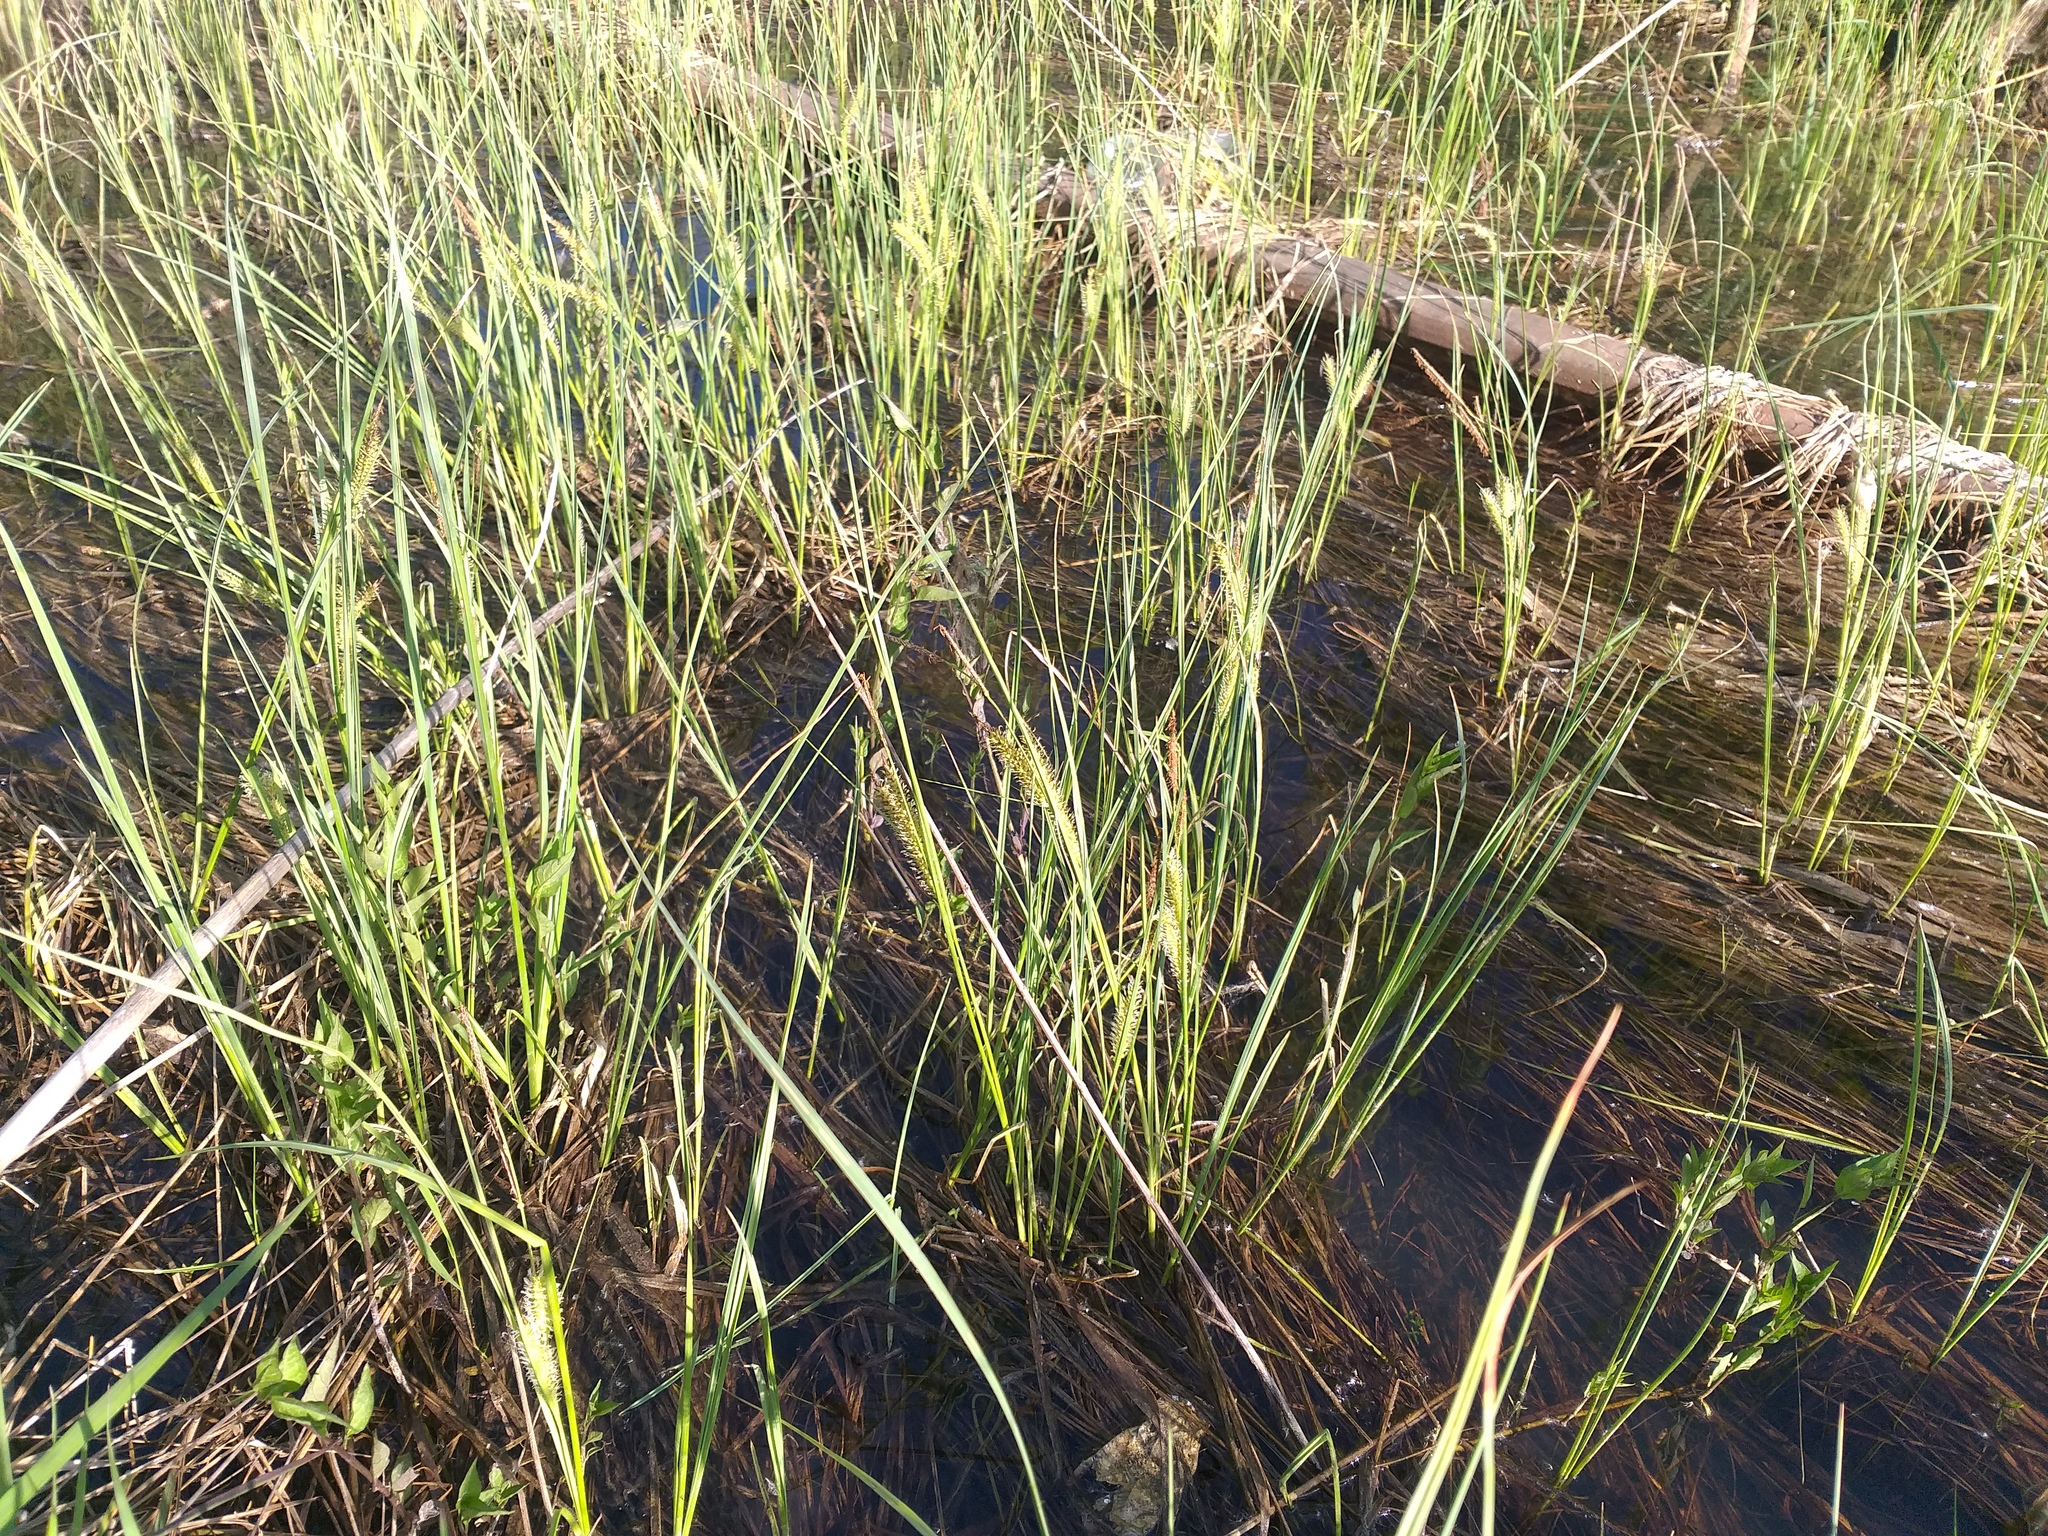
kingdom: Plantae
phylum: Tracheophyta
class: Liliopsida
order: Poales
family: Cyperaceae
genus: Carex
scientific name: Carex rostrata
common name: Bottle sedge
